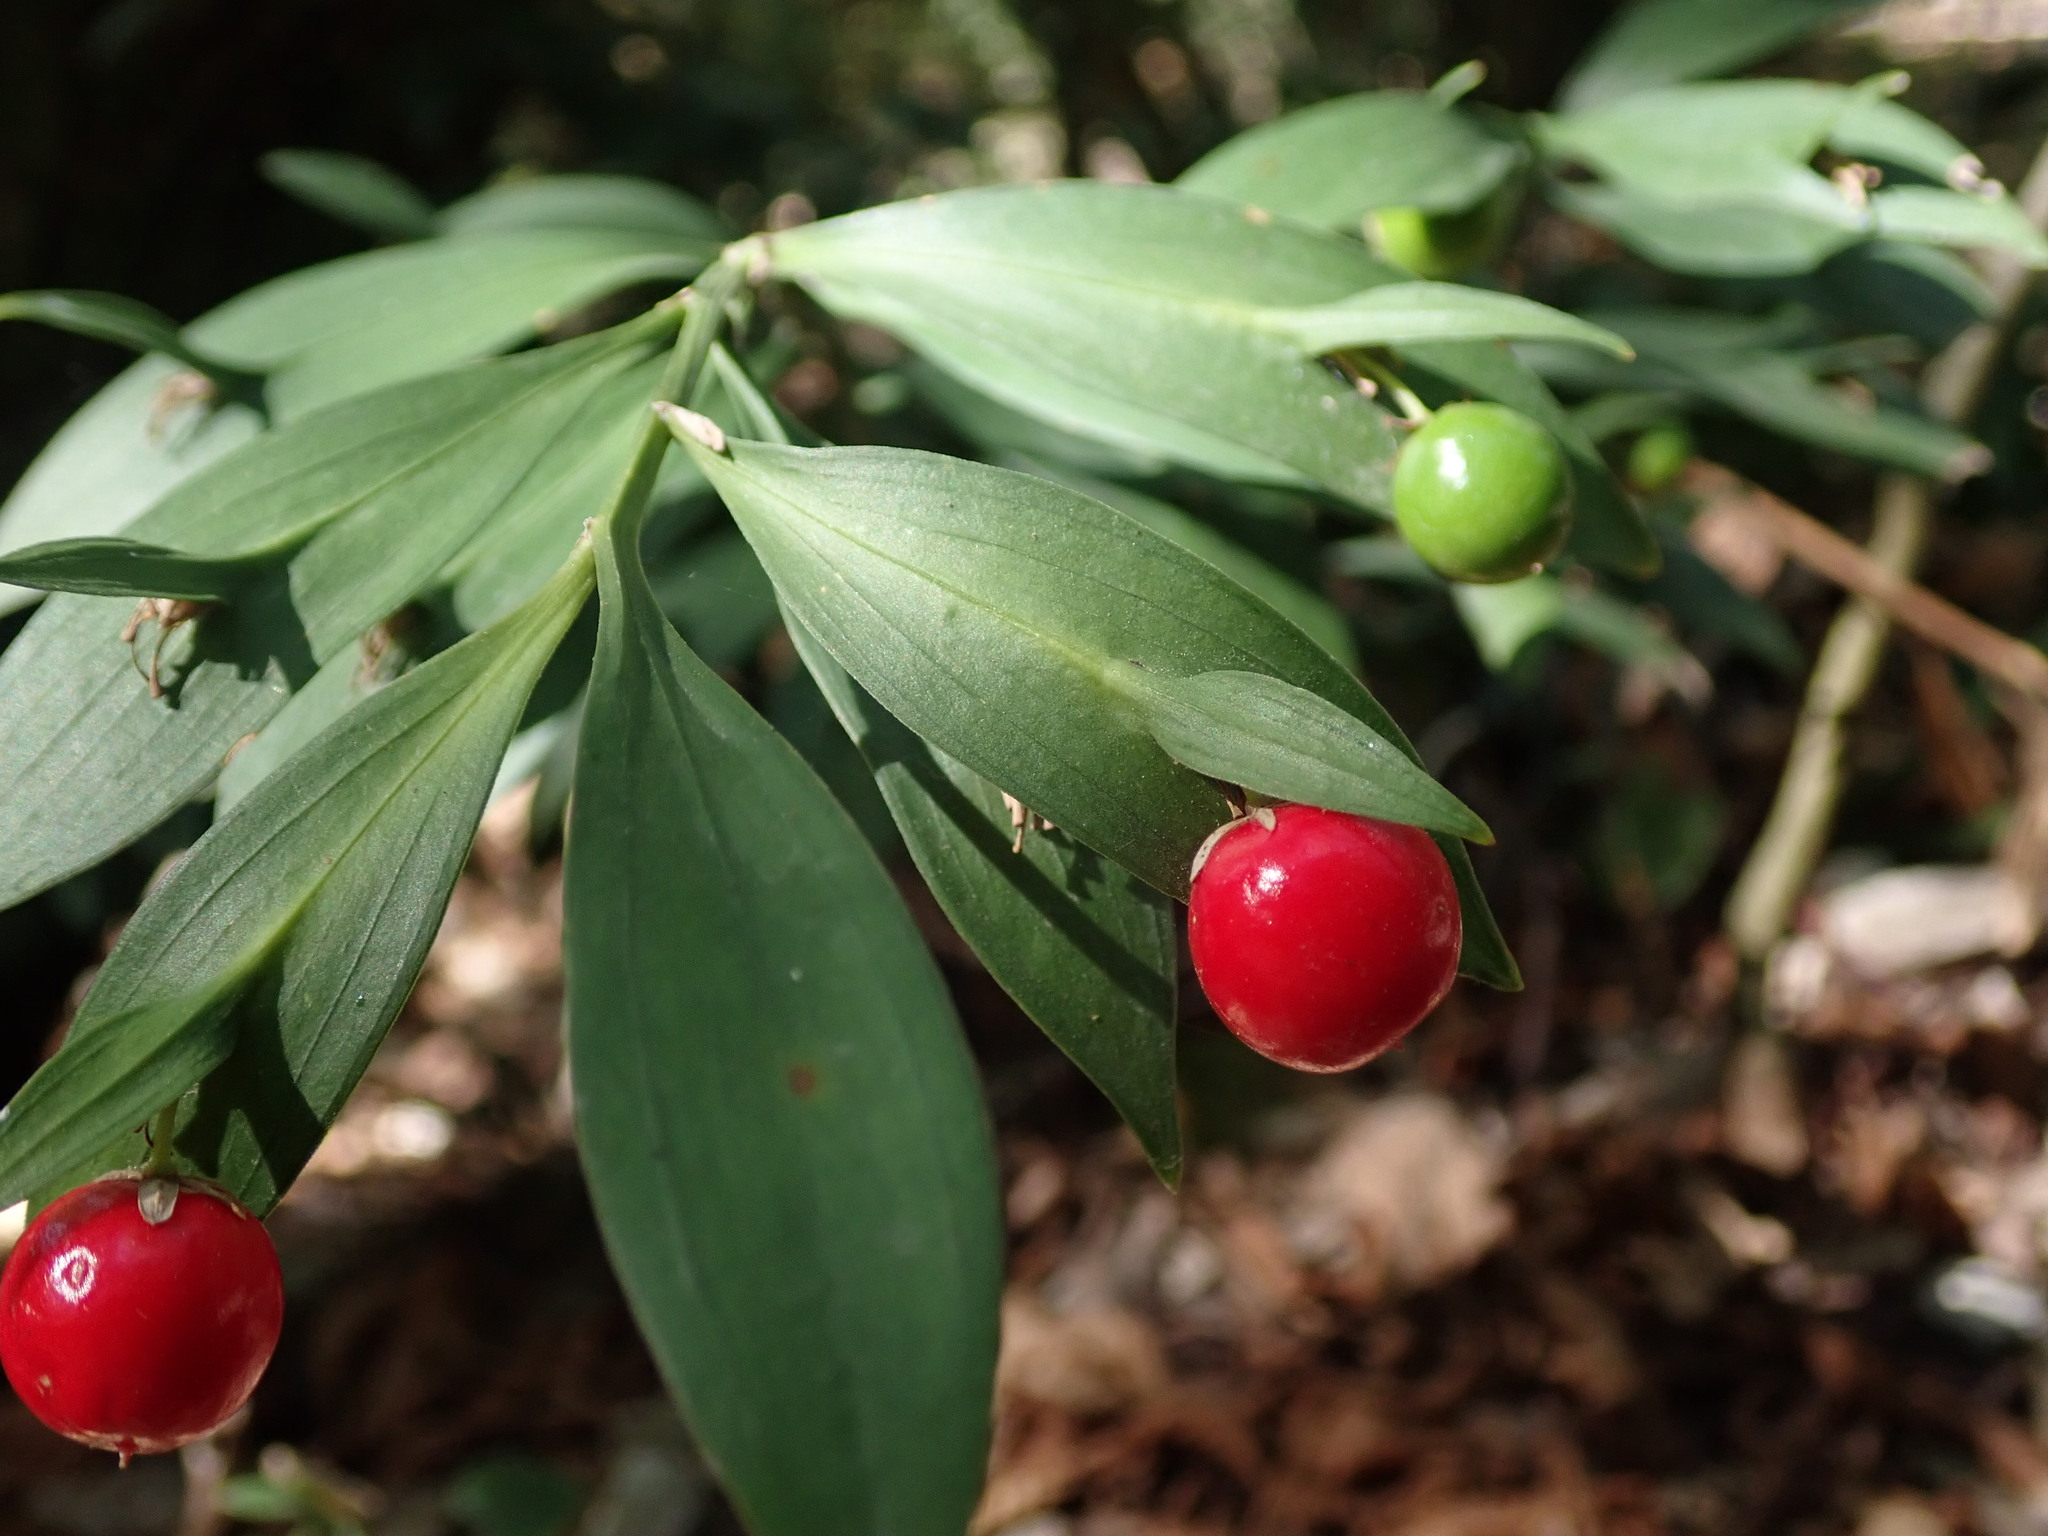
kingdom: Plantae
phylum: Tracheophyta
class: Liliopsida
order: Asparagales
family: Asparagaceae
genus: Ruscus
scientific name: Ruscus hypoglossum
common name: Spineless butcher's-broom
